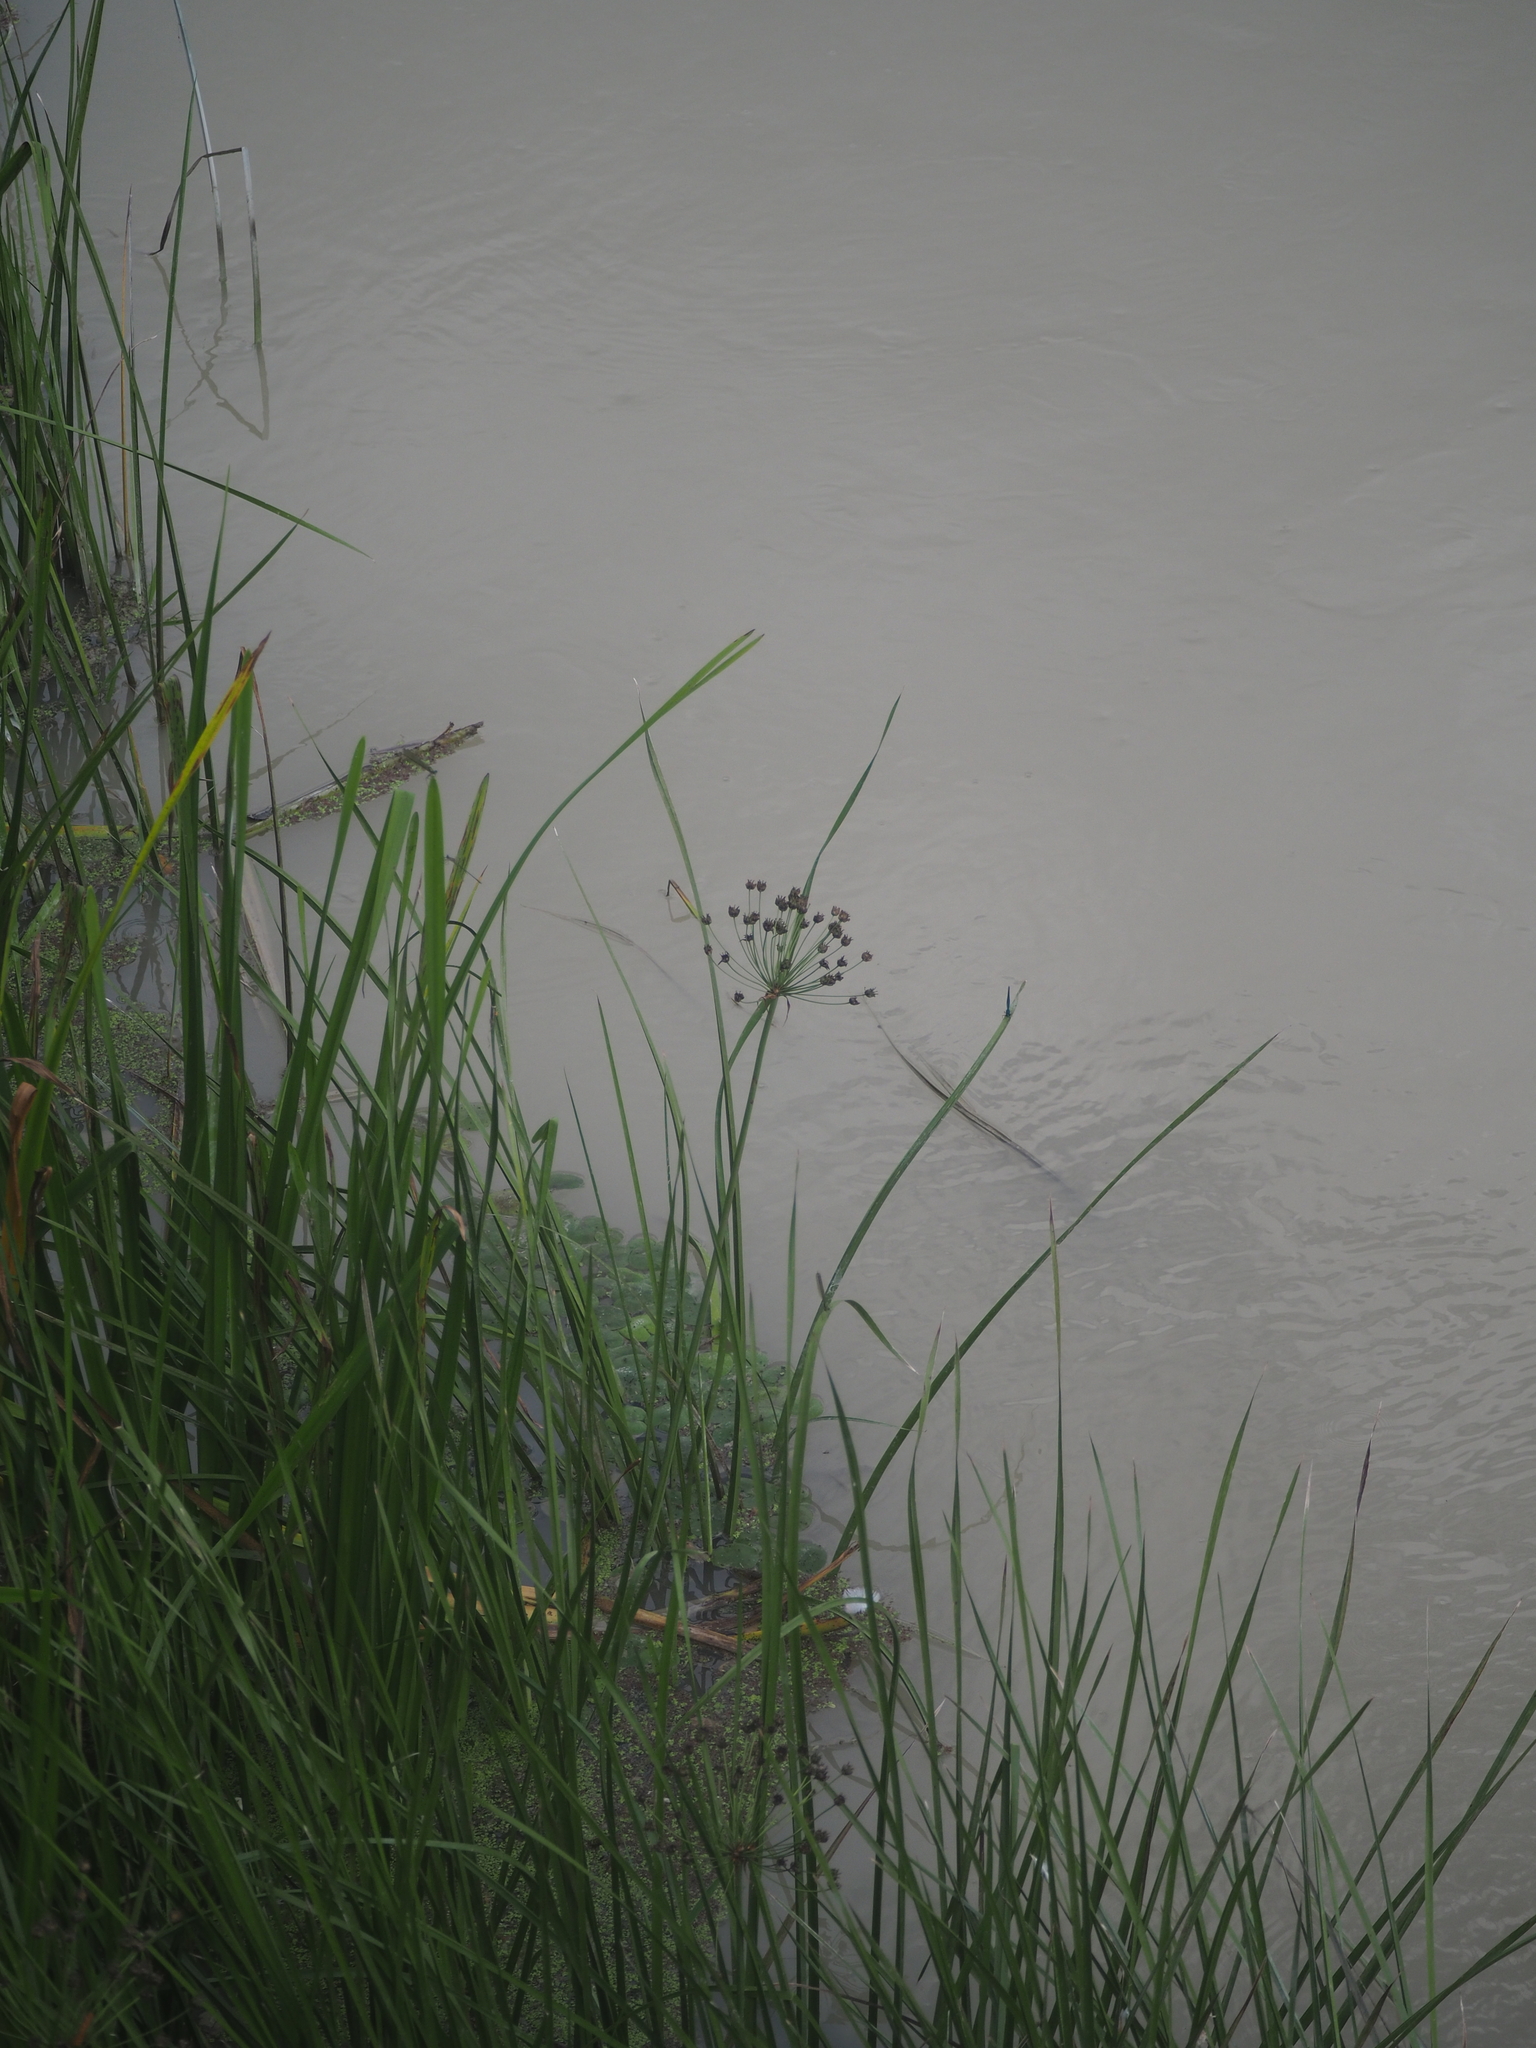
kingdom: Plantae
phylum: Tracheophyta
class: Liliopsida
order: Alismatales
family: Butomaceae
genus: Butomus
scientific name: Butomus umbellatus
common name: Flowering-rush
